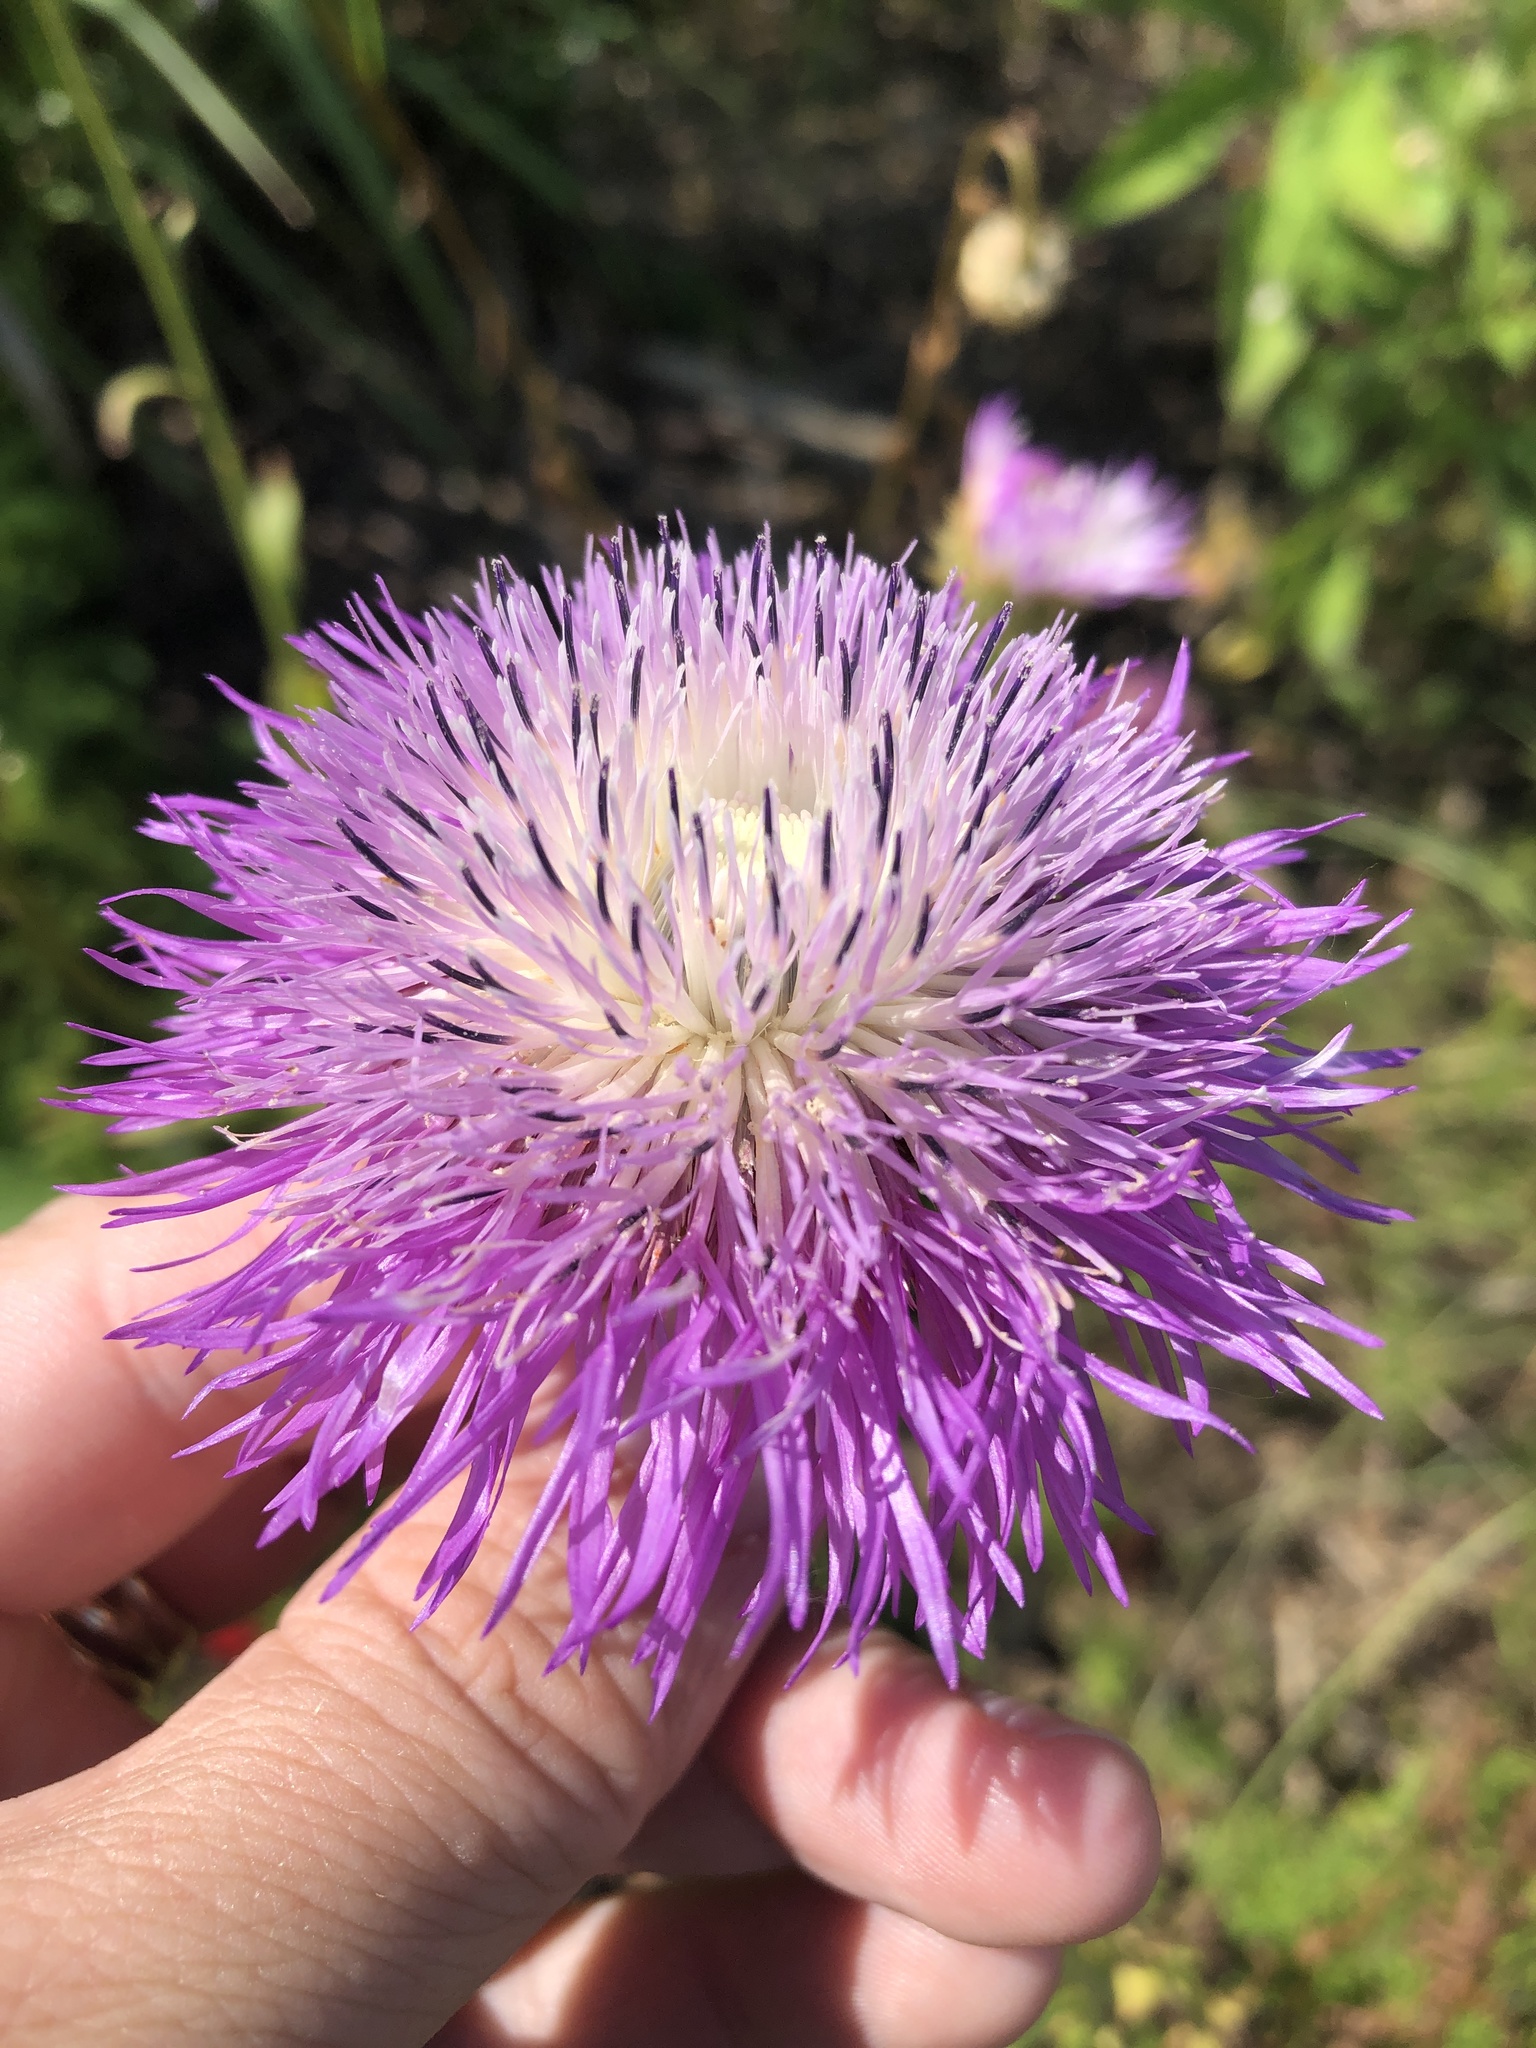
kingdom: Plantae
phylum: Tracheophyta
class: Magnoliopsida
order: Asterales
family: Asteraceae
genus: Plectocephalus
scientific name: Plectocephalus americanus
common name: American basket-flower
